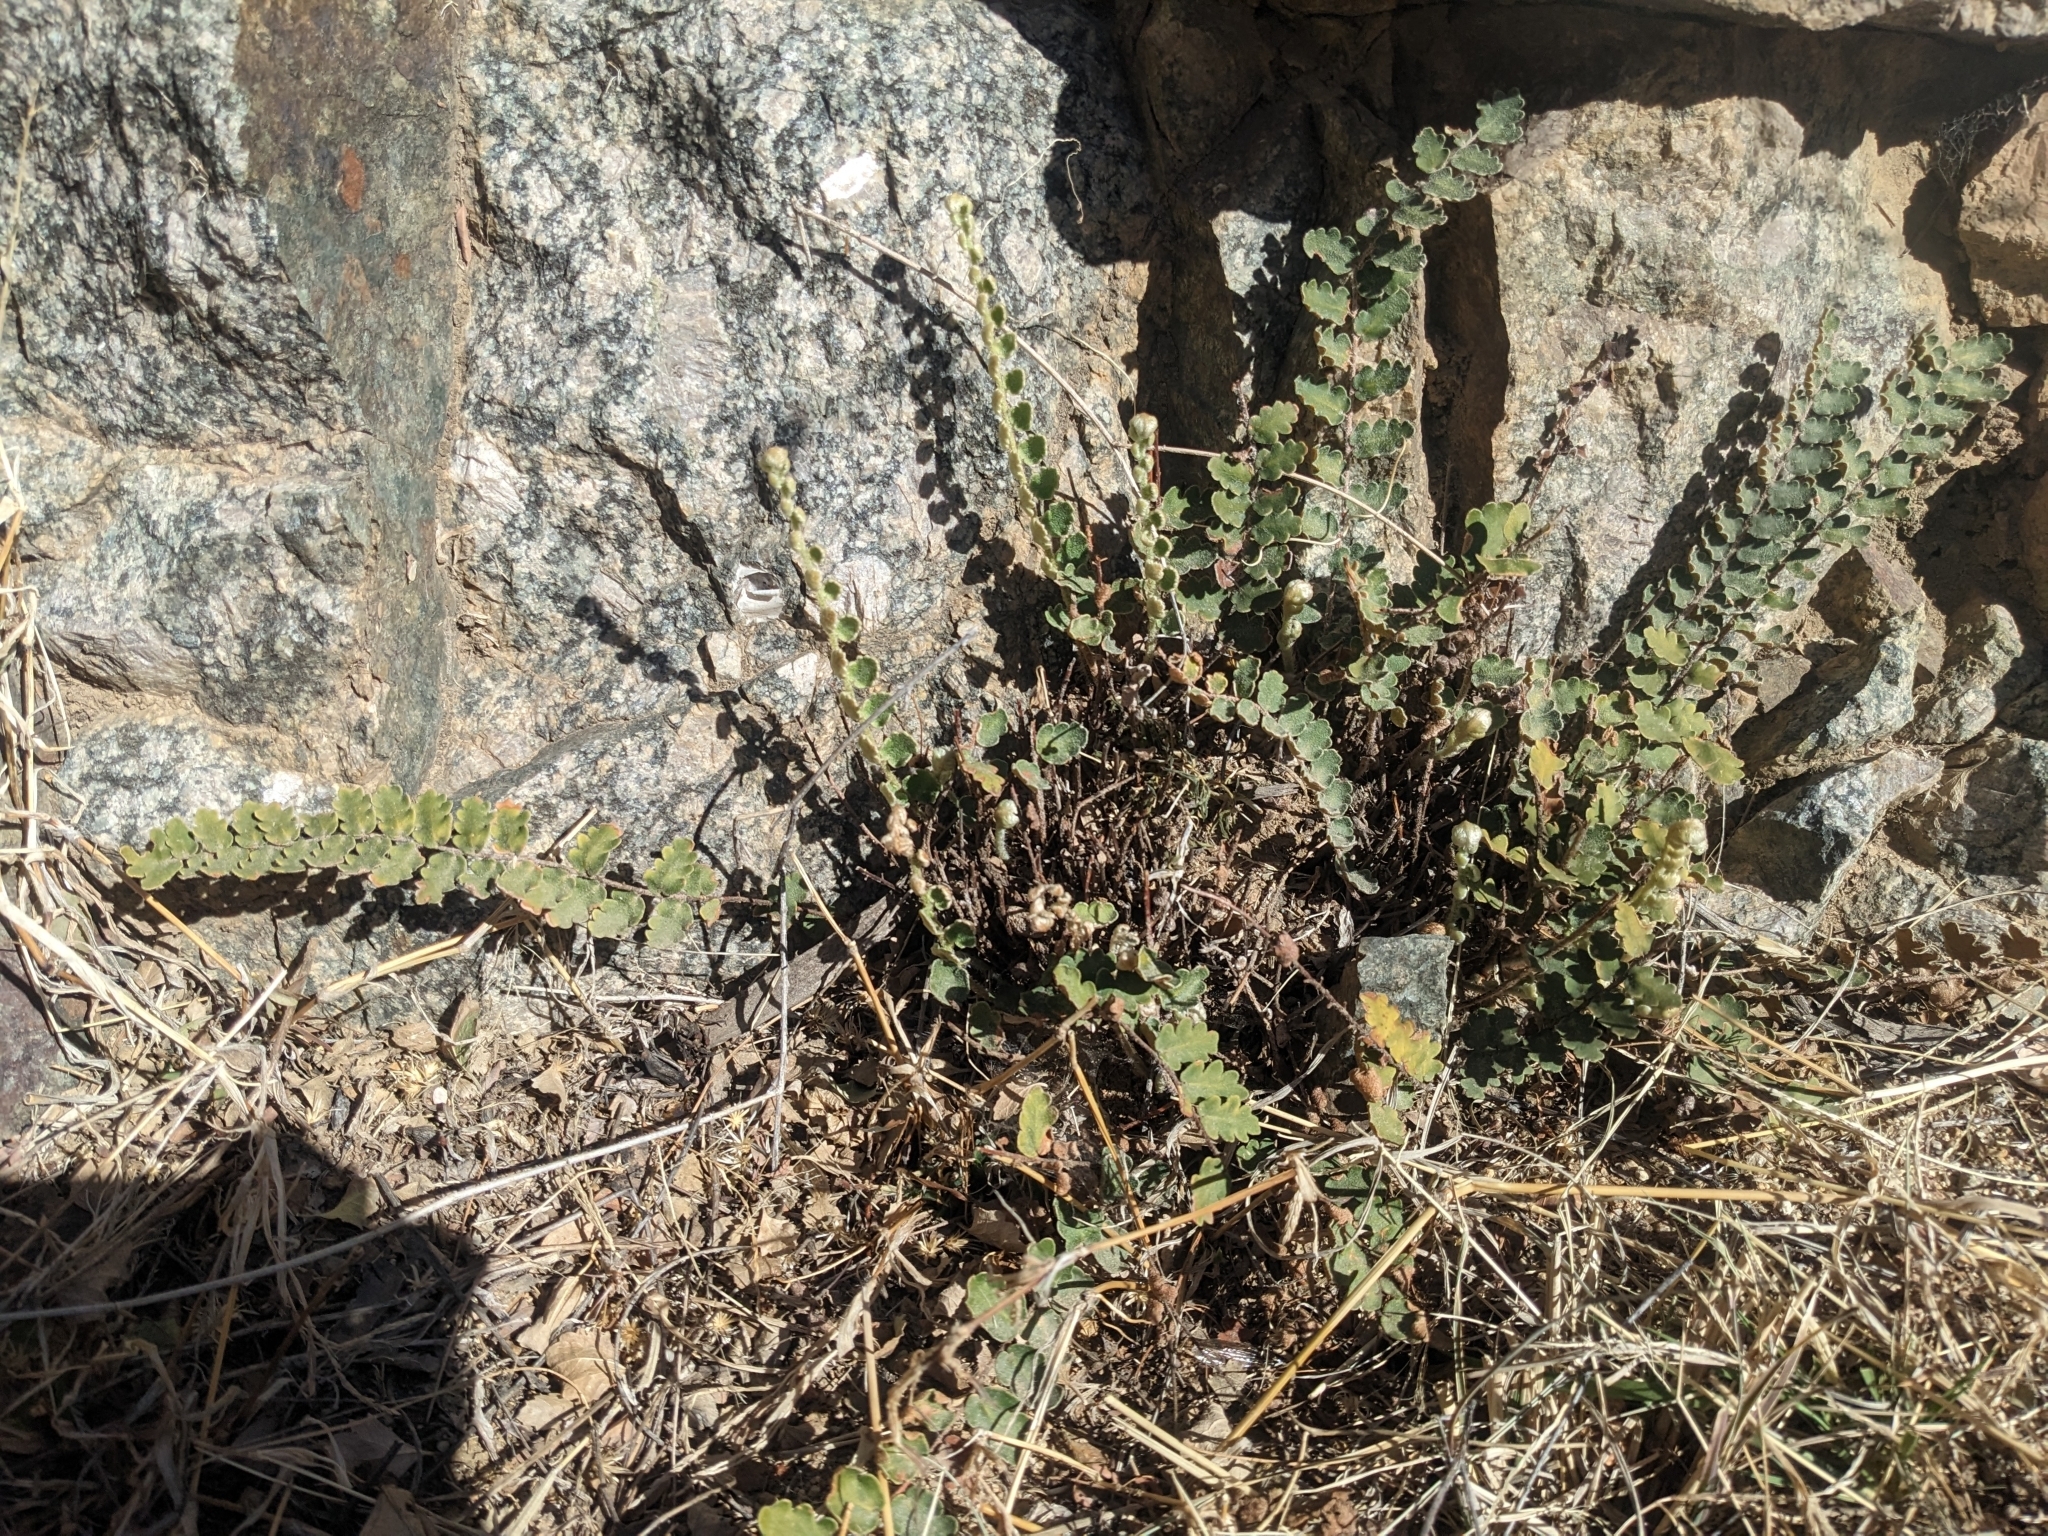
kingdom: Plantae
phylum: Tracheophyta
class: Polypodiopsida
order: Polypodiales
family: Pteridaceae
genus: Astrolepis
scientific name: Astrolepis sinuata
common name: Wavy scaly cloakfern
